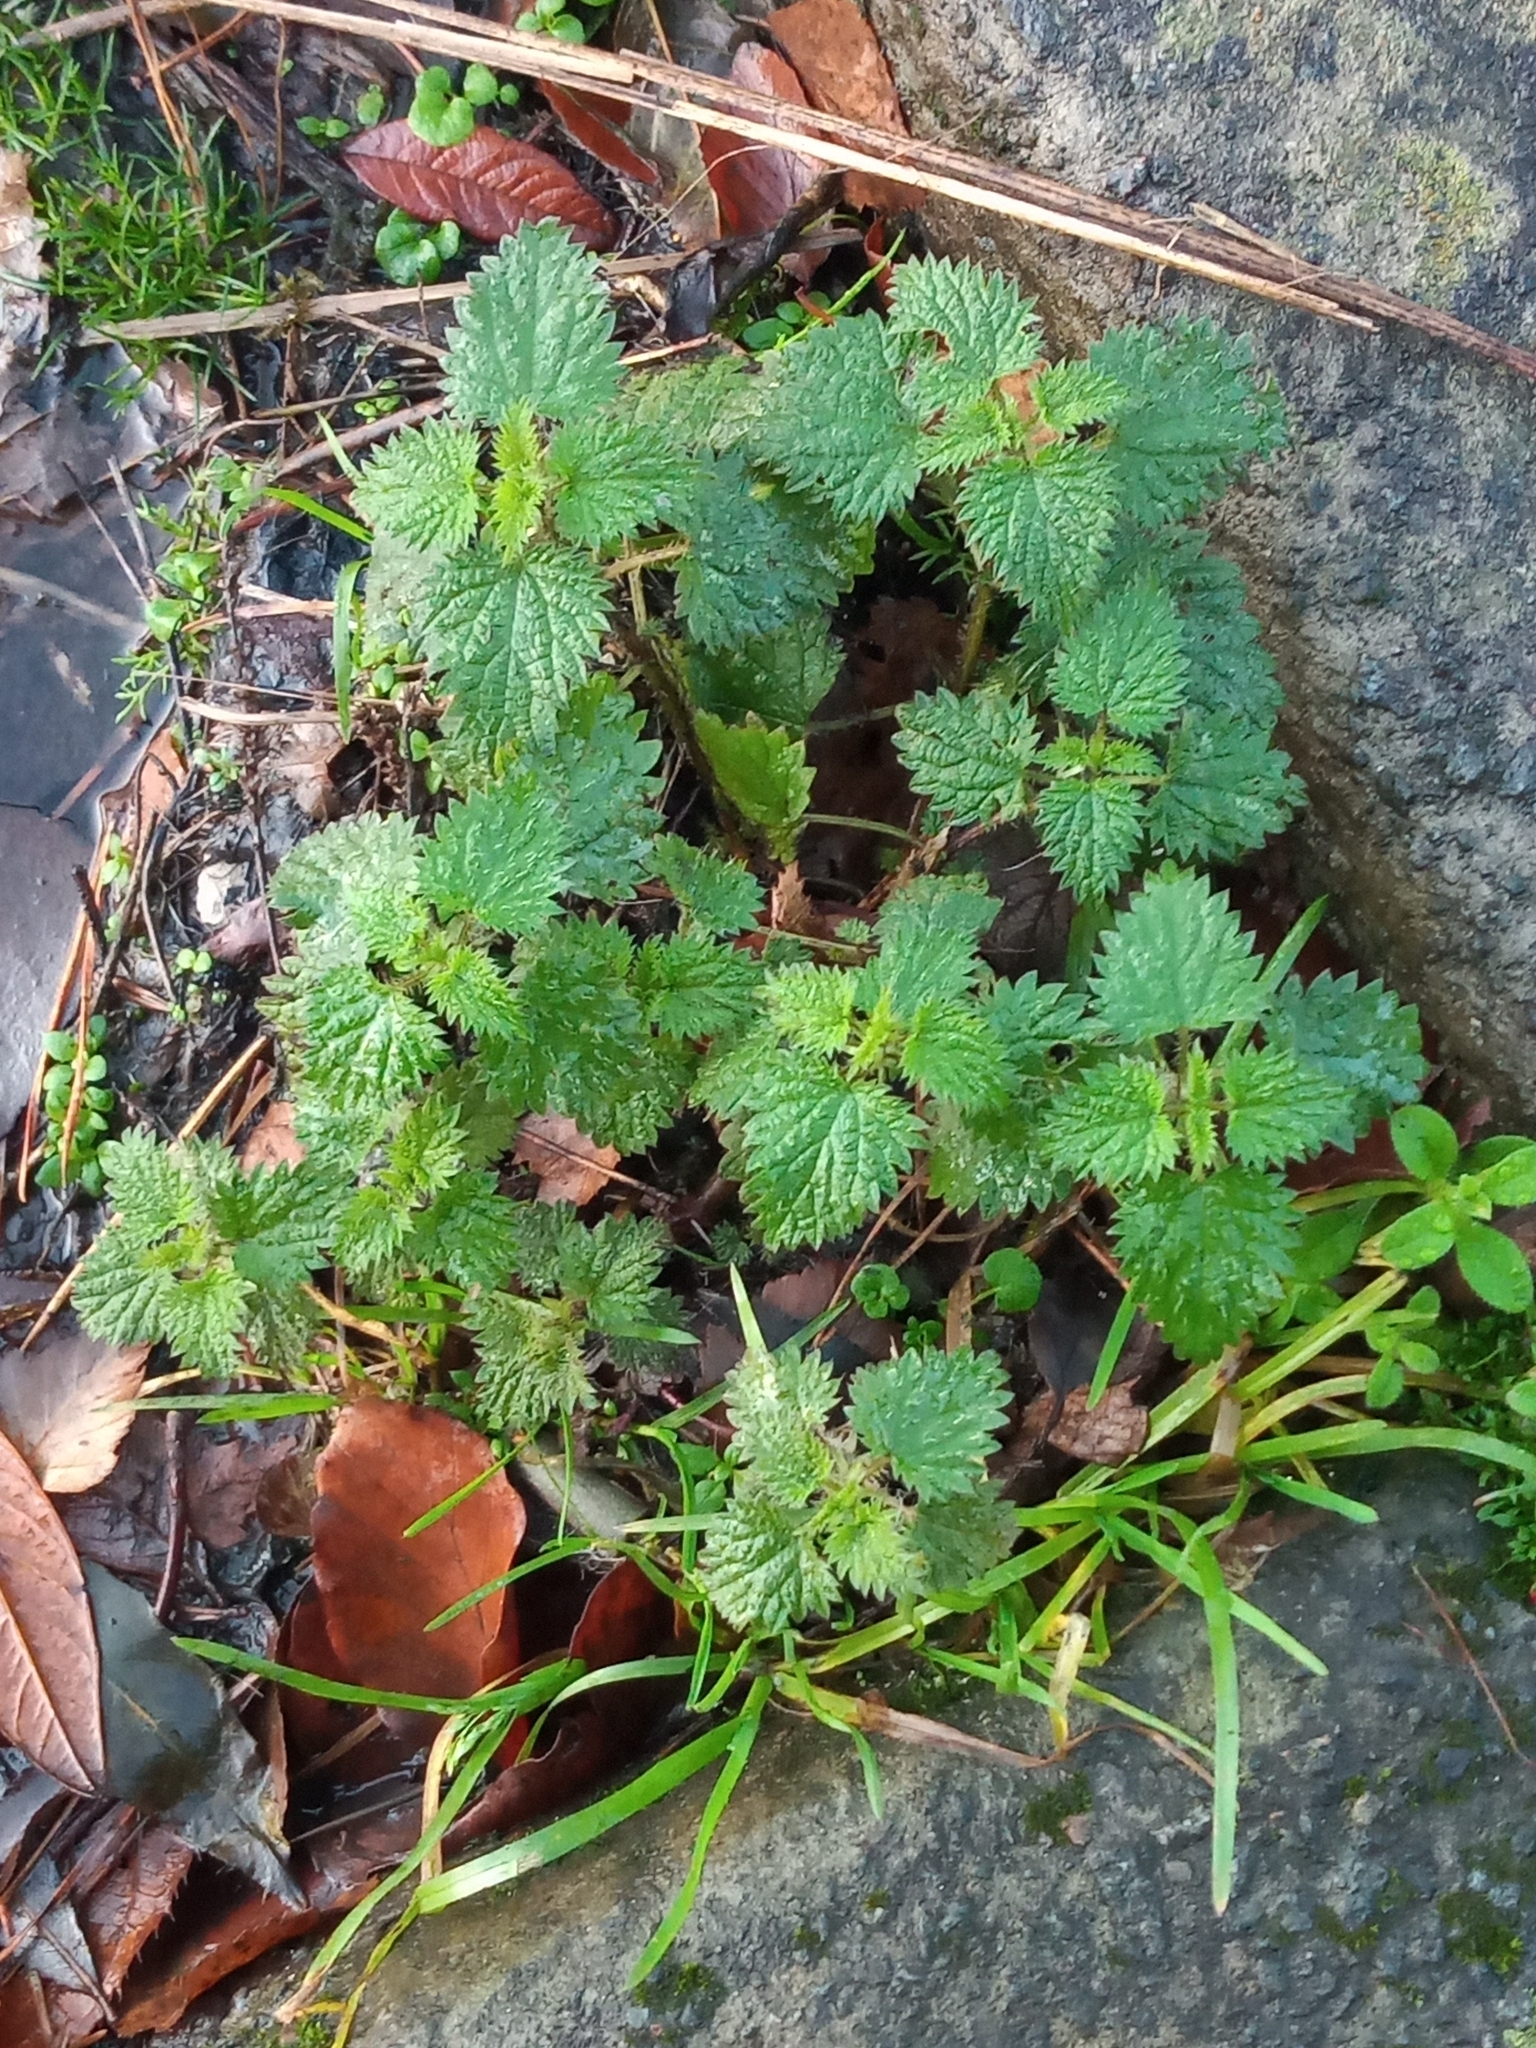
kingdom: Plantae
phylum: Tracheophyta
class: Magnoliopsida
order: Rosales
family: Urticaceae
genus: Urtica
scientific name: Urtica dioica
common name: Common nettle
